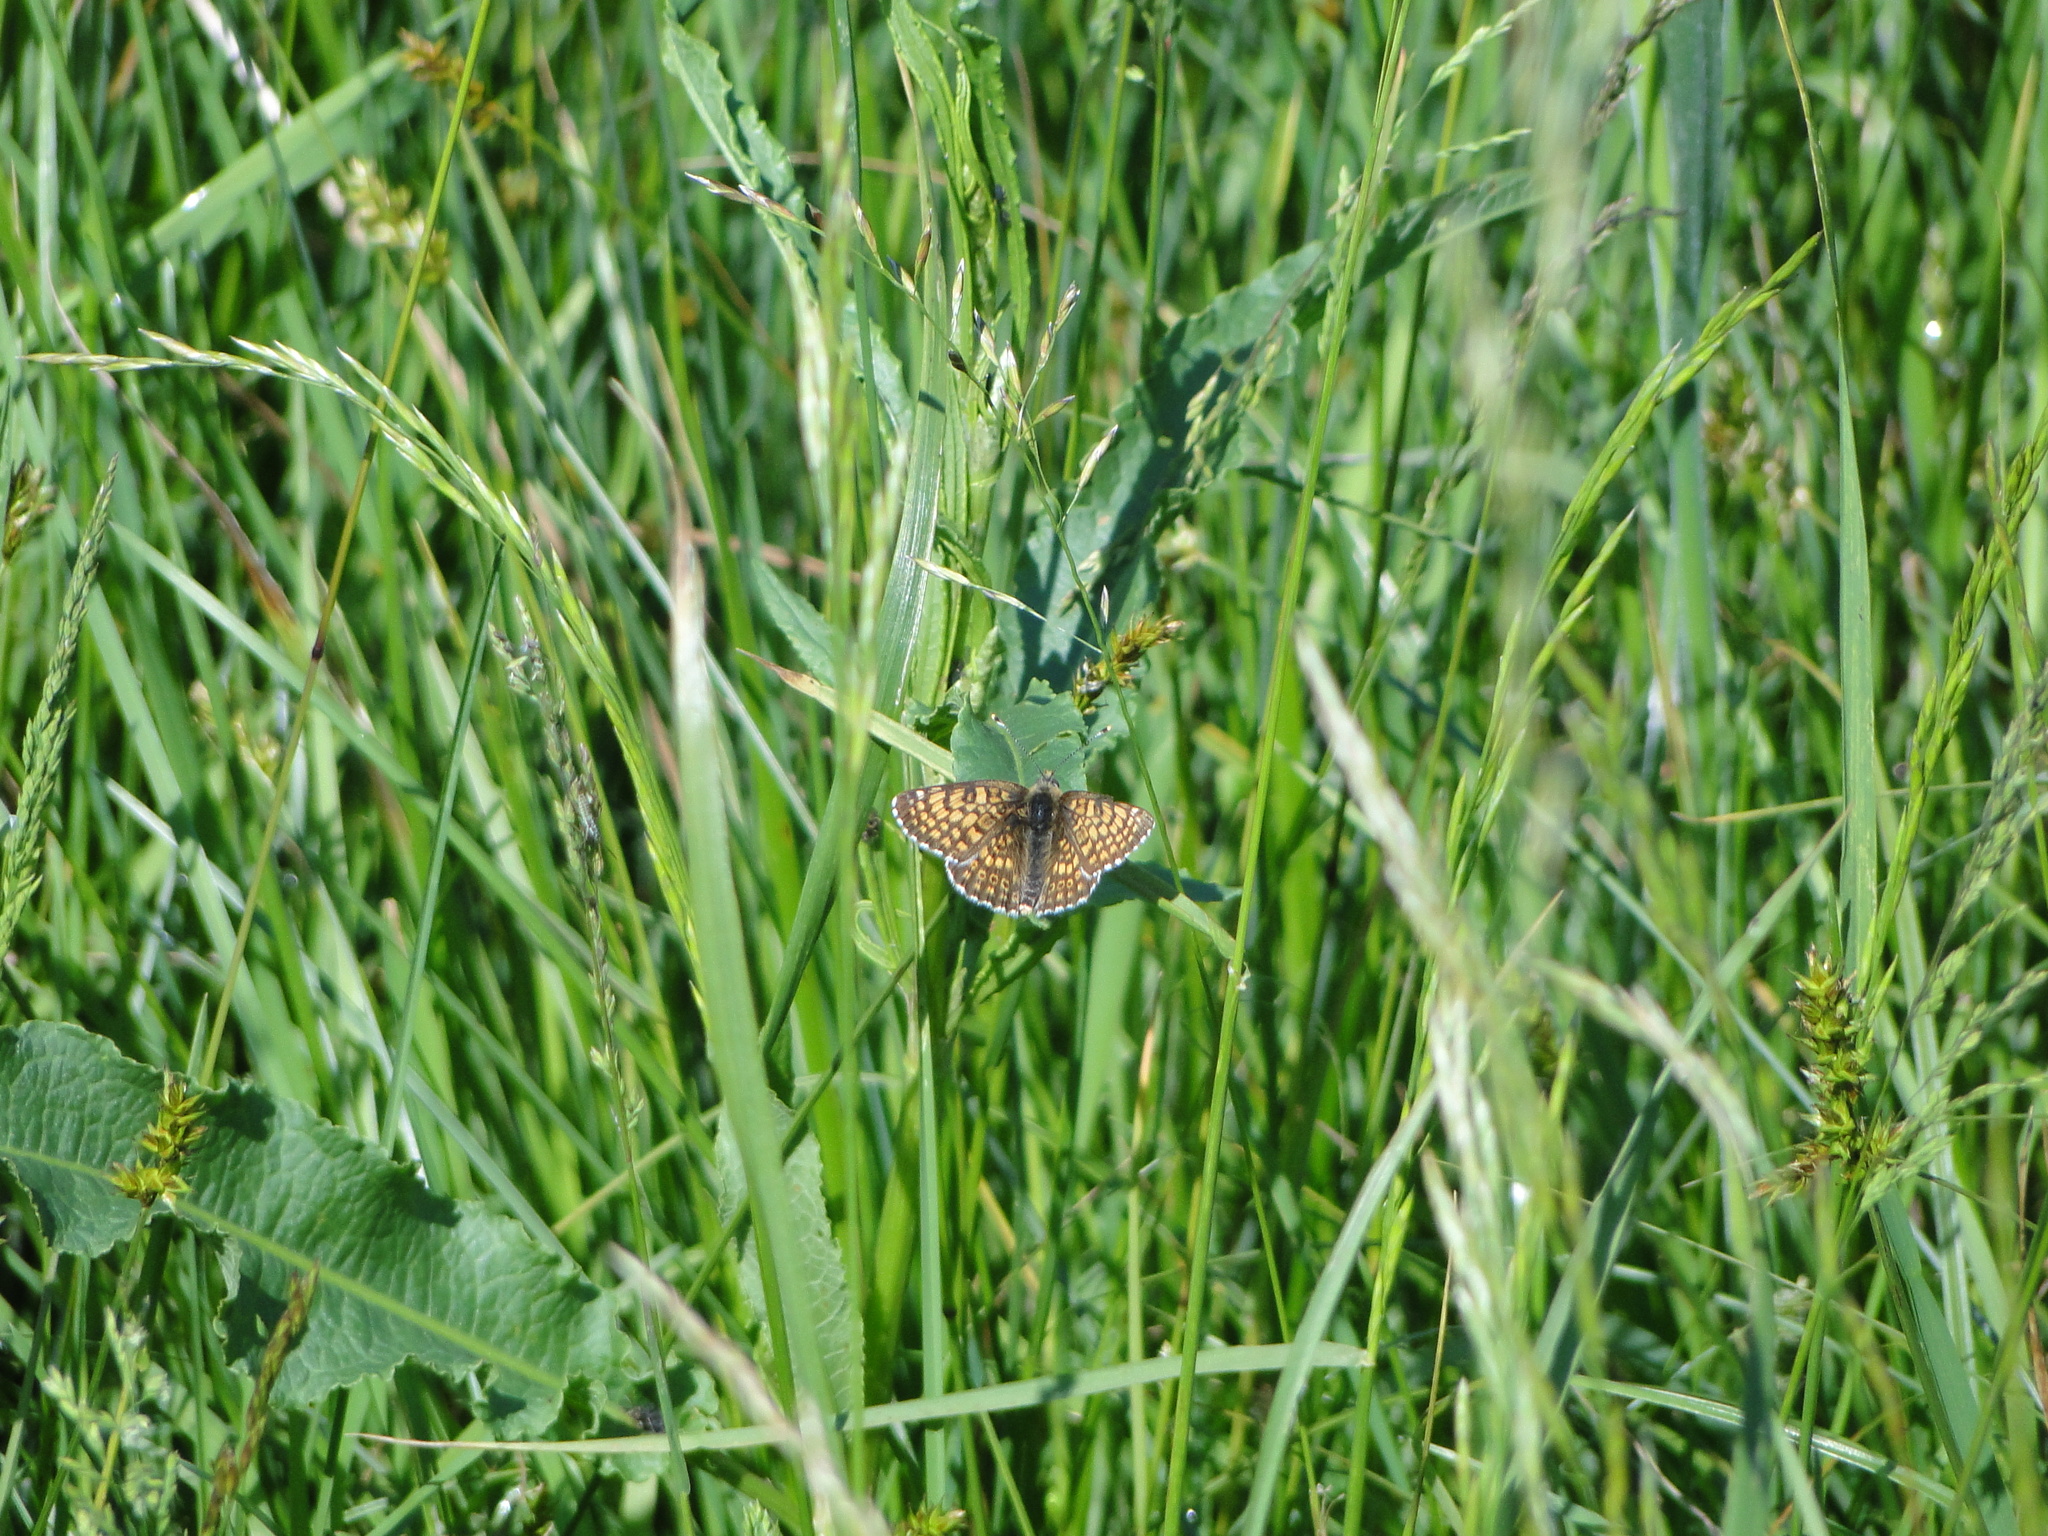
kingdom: Animalia
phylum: Arthropoda
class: Insecta
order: Lepidoptera
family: Nymphalidae
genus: Melitaea
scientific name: Melitaea cinxia
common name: Glanville fritillary
